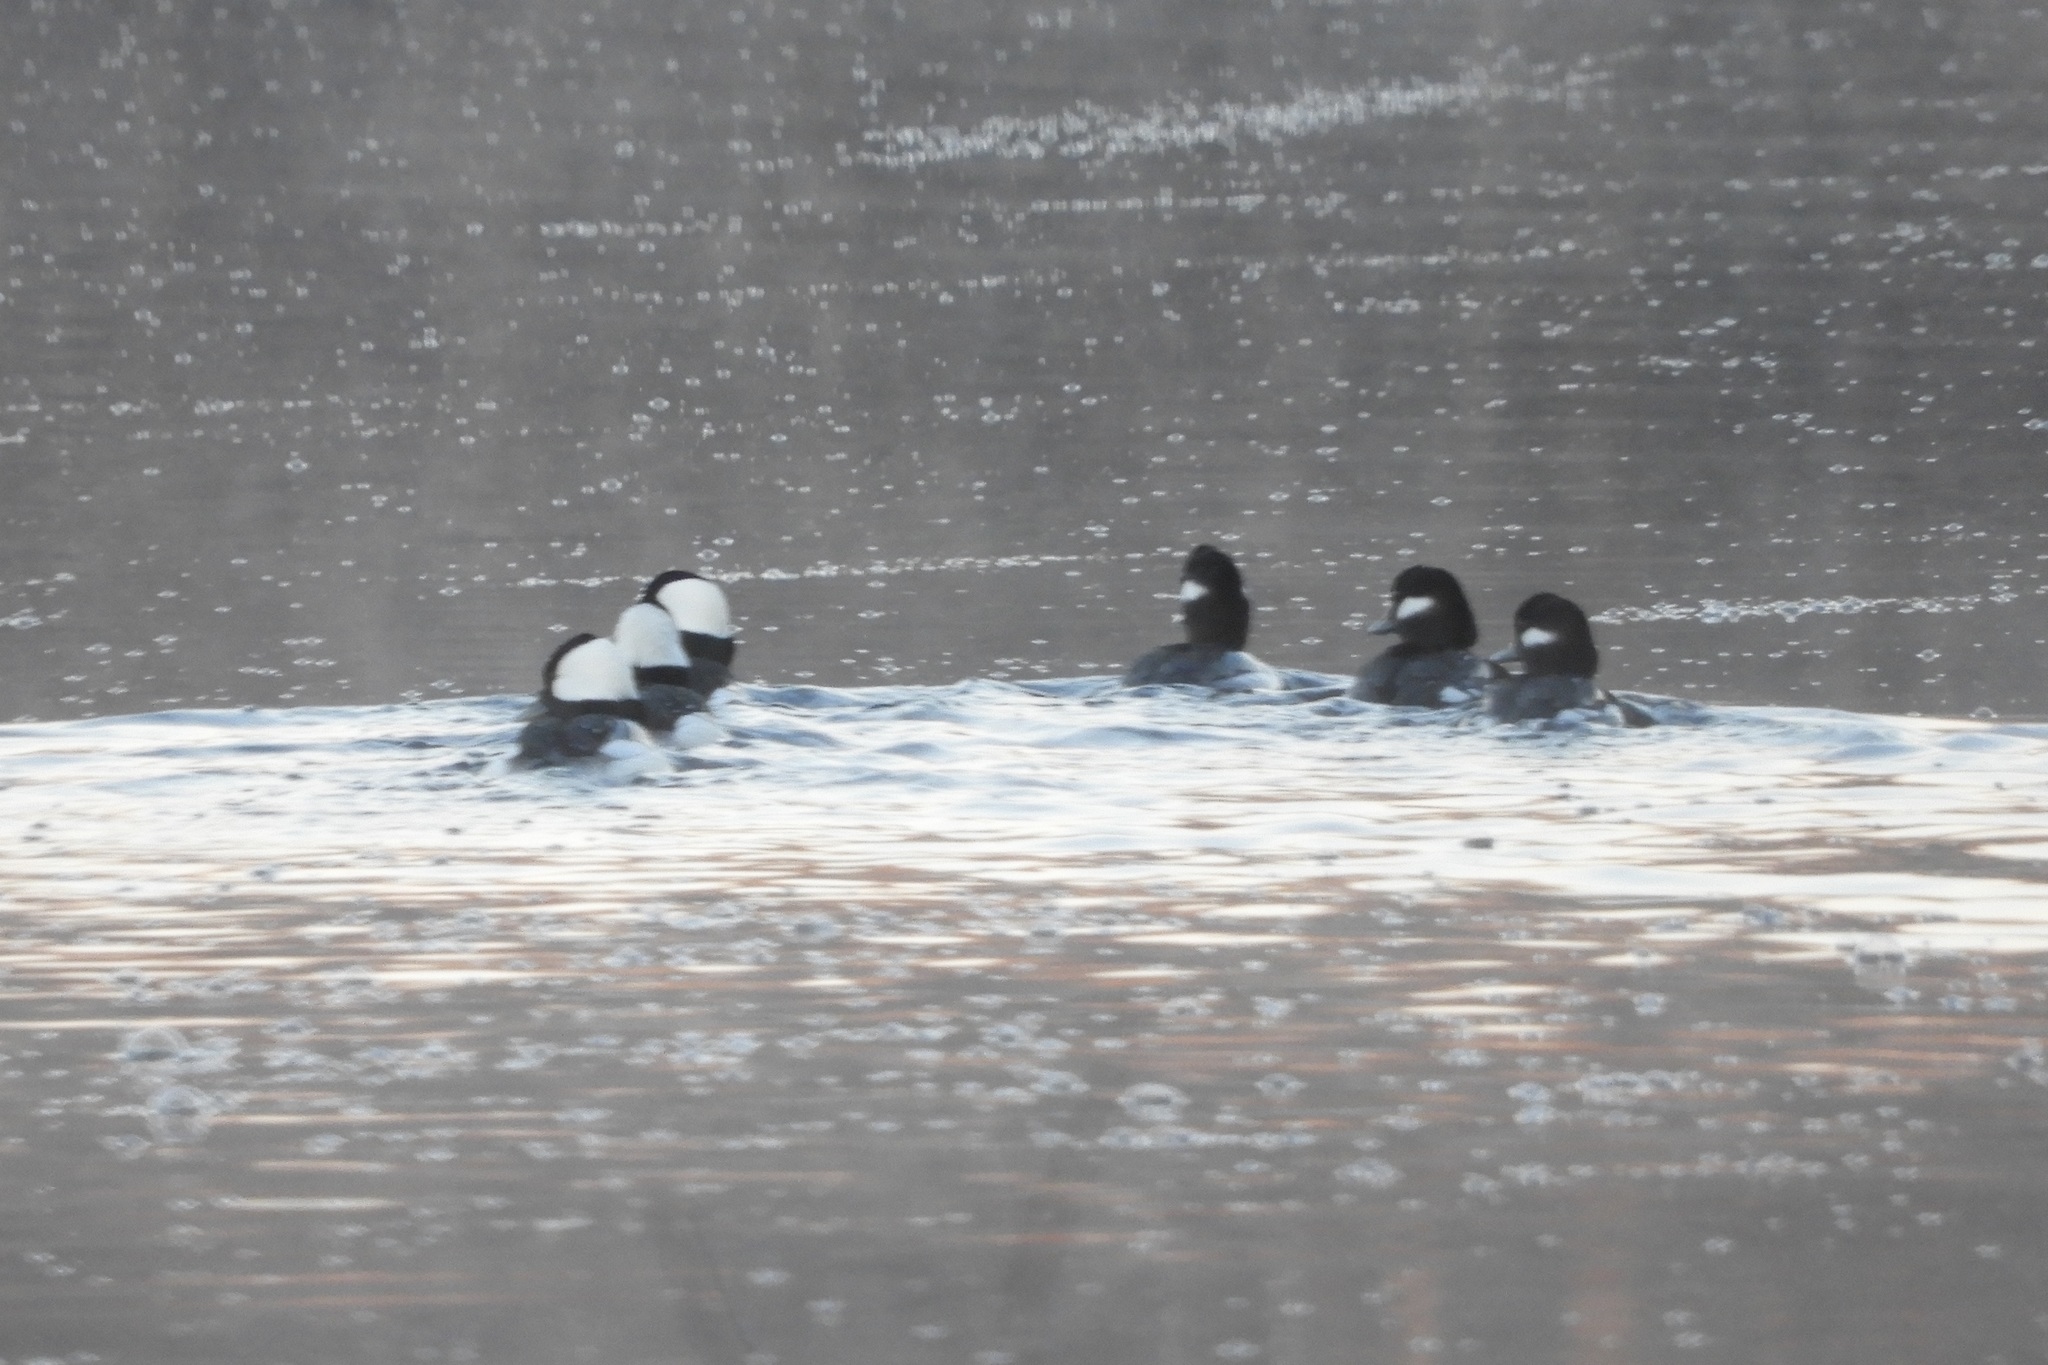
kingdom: Animalia
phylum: Chordata
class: Aves
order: Anseriformes
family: Anatidae
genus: Bucephala
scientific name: Bucephala albeola
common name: Bufflehead
